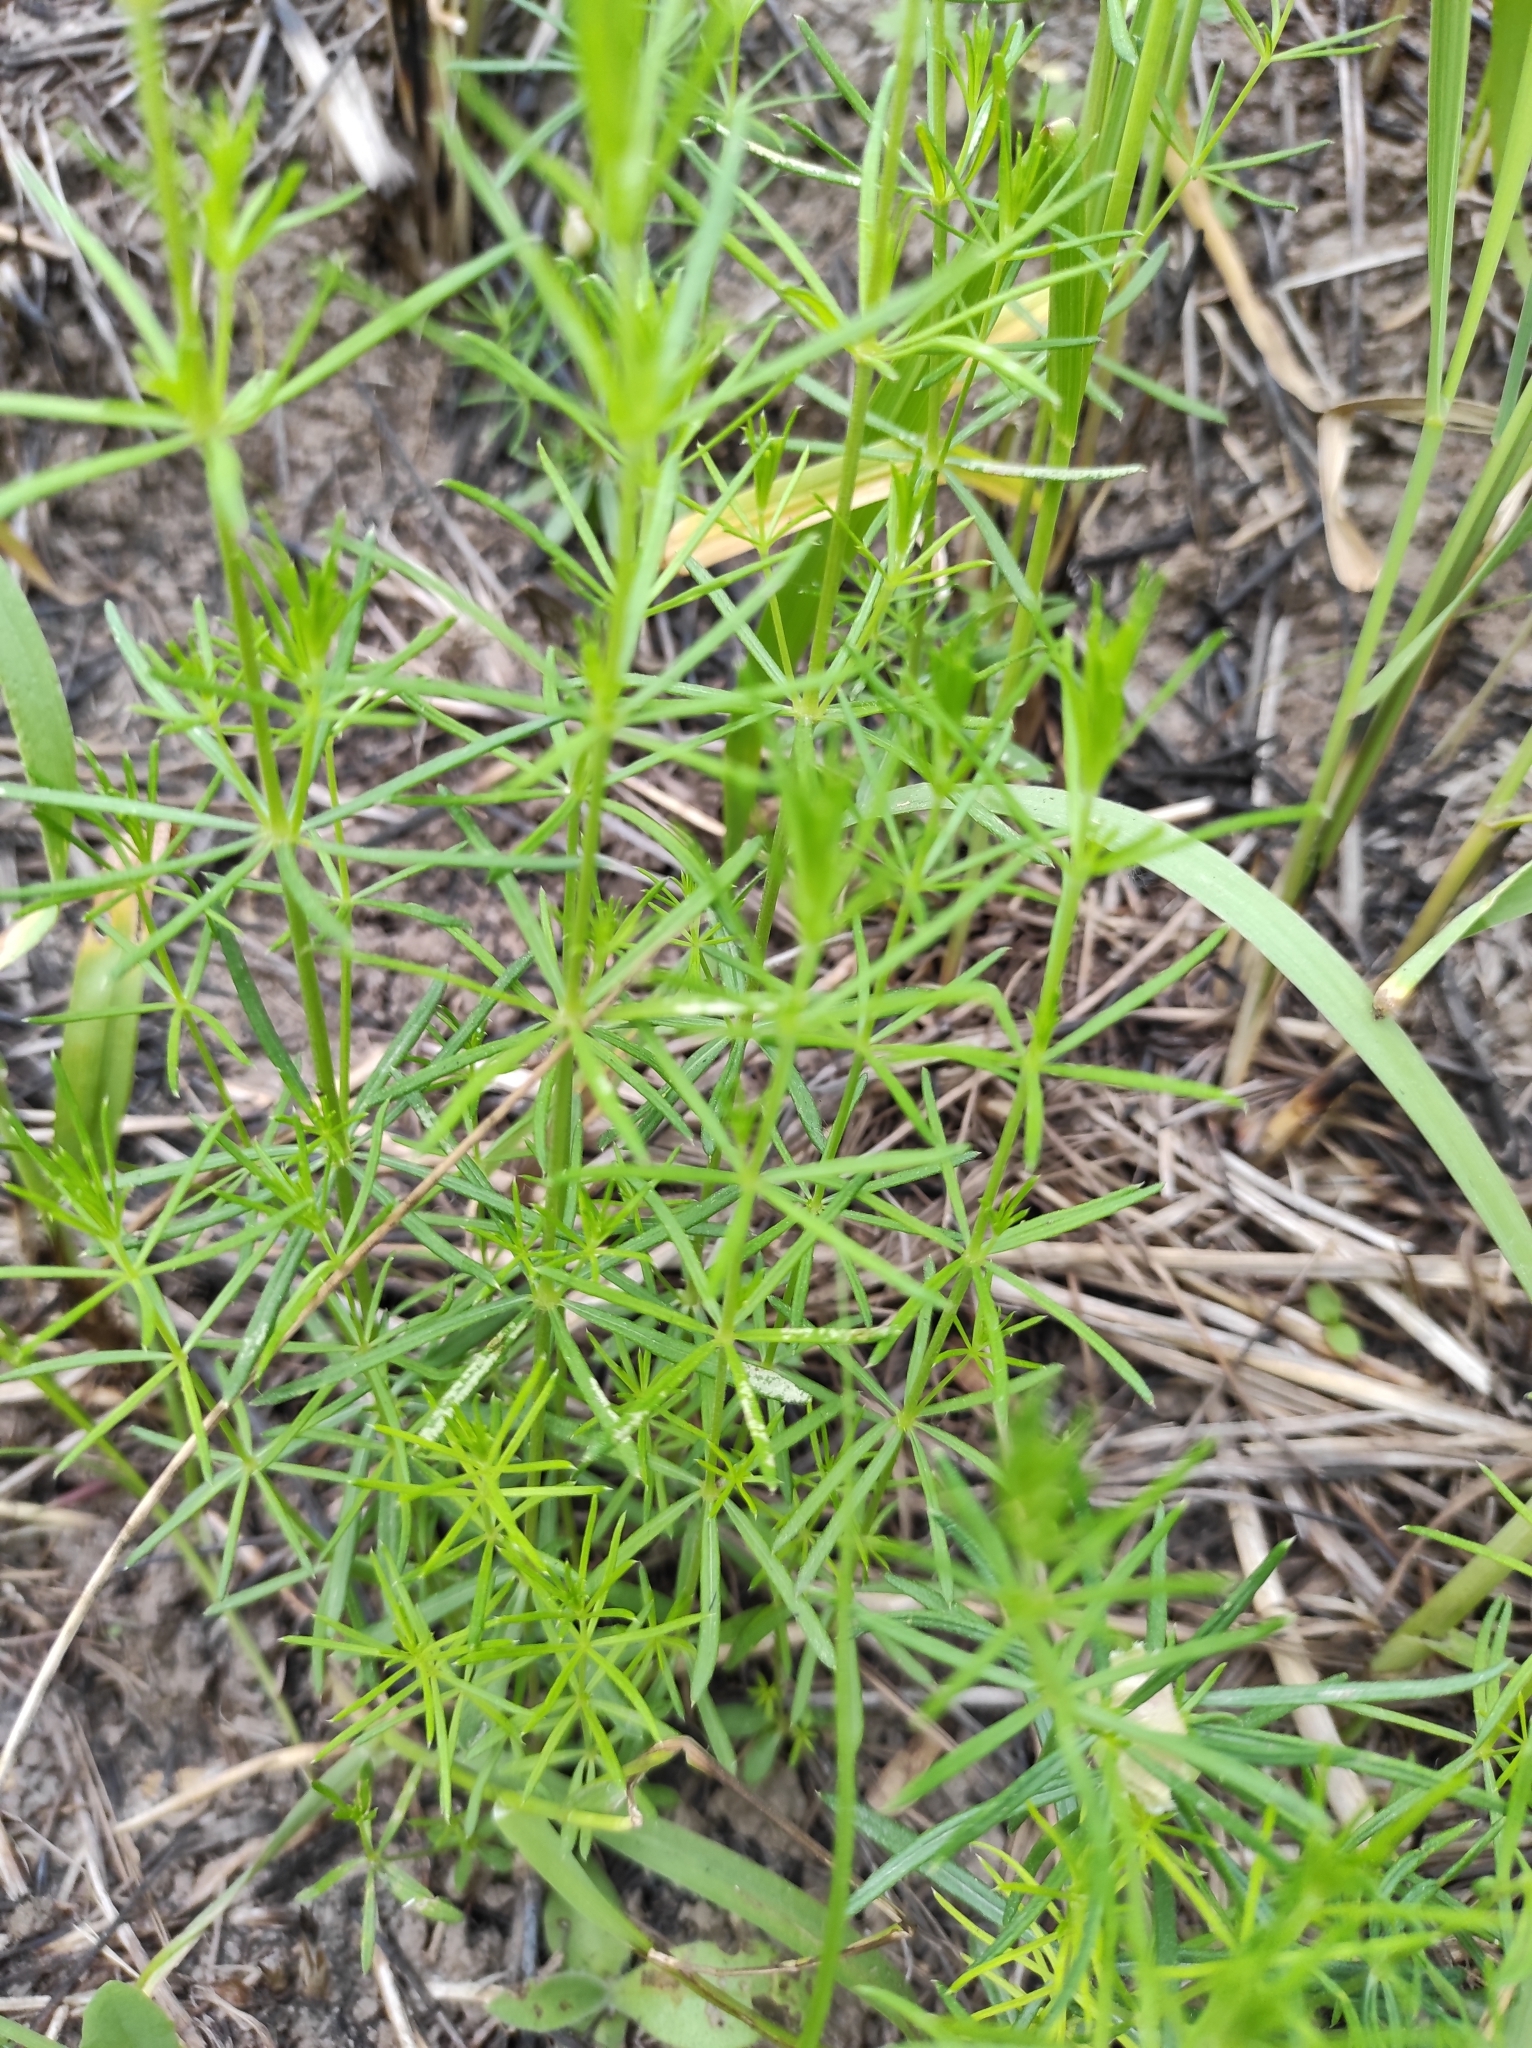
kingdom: Plantae
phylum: Tracheophyta
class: Magnoliopsida
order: Gentianales
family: Rubiaceae
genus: Galium
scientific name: Galium verum
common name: Lady's bedstraw
